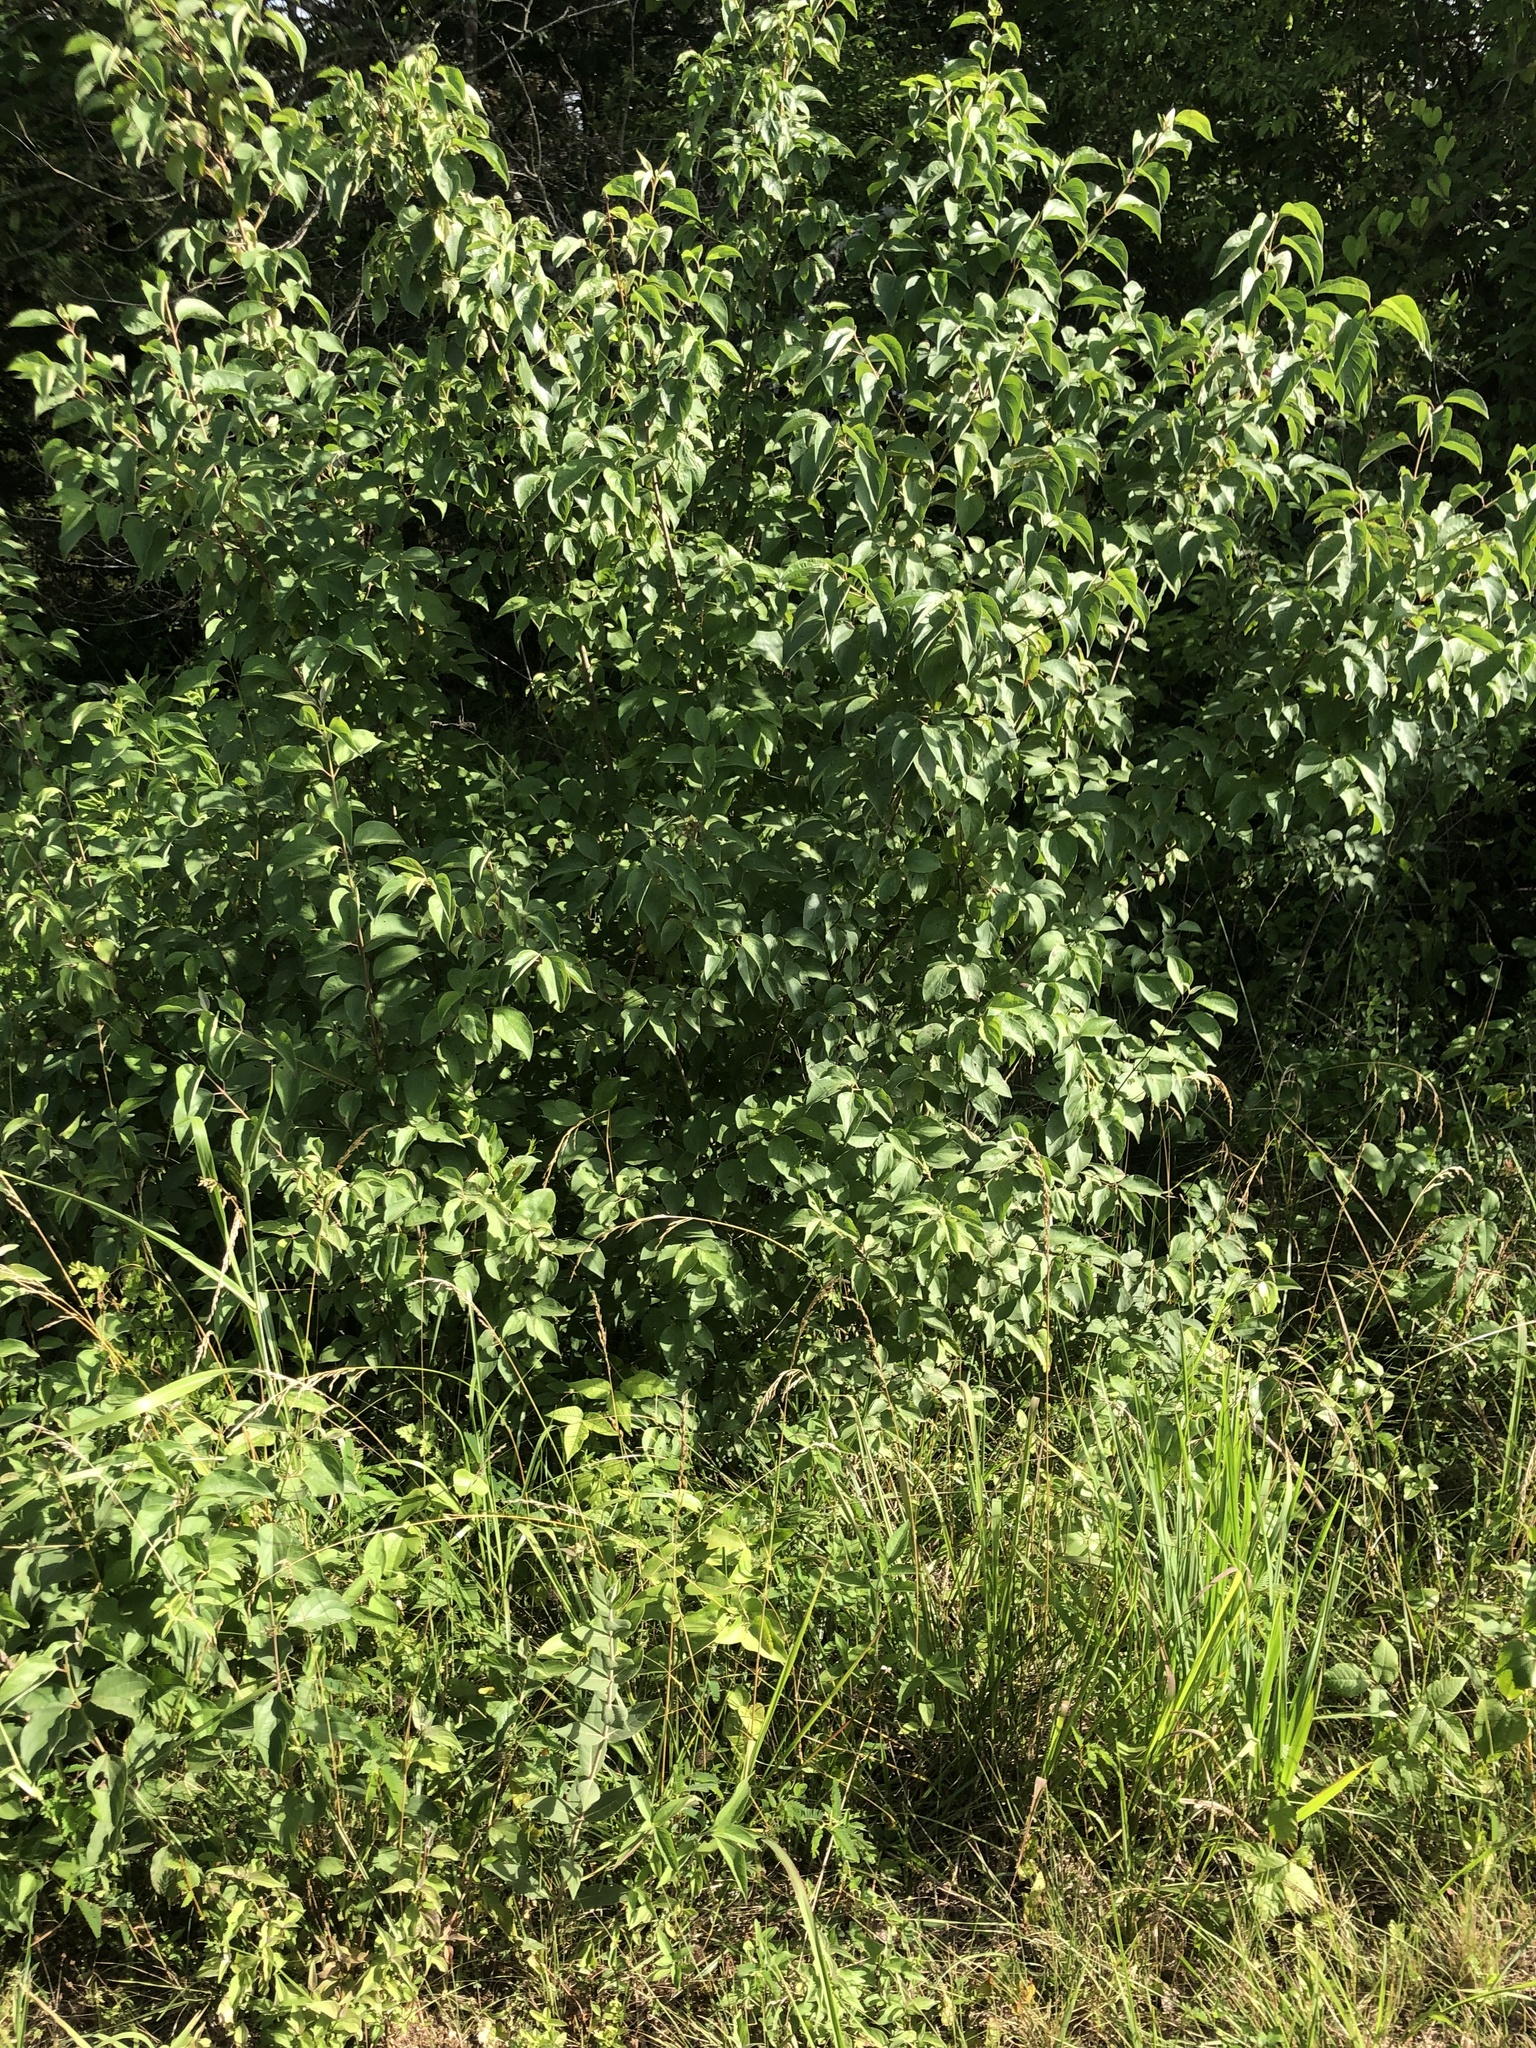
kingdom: Plantae
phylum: Tracheophyta
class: Magnoliopsida
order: Cornales
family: Cornaceae
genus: Cornus
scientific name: Cornus drummondii
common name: Rough-leaf dogwood
